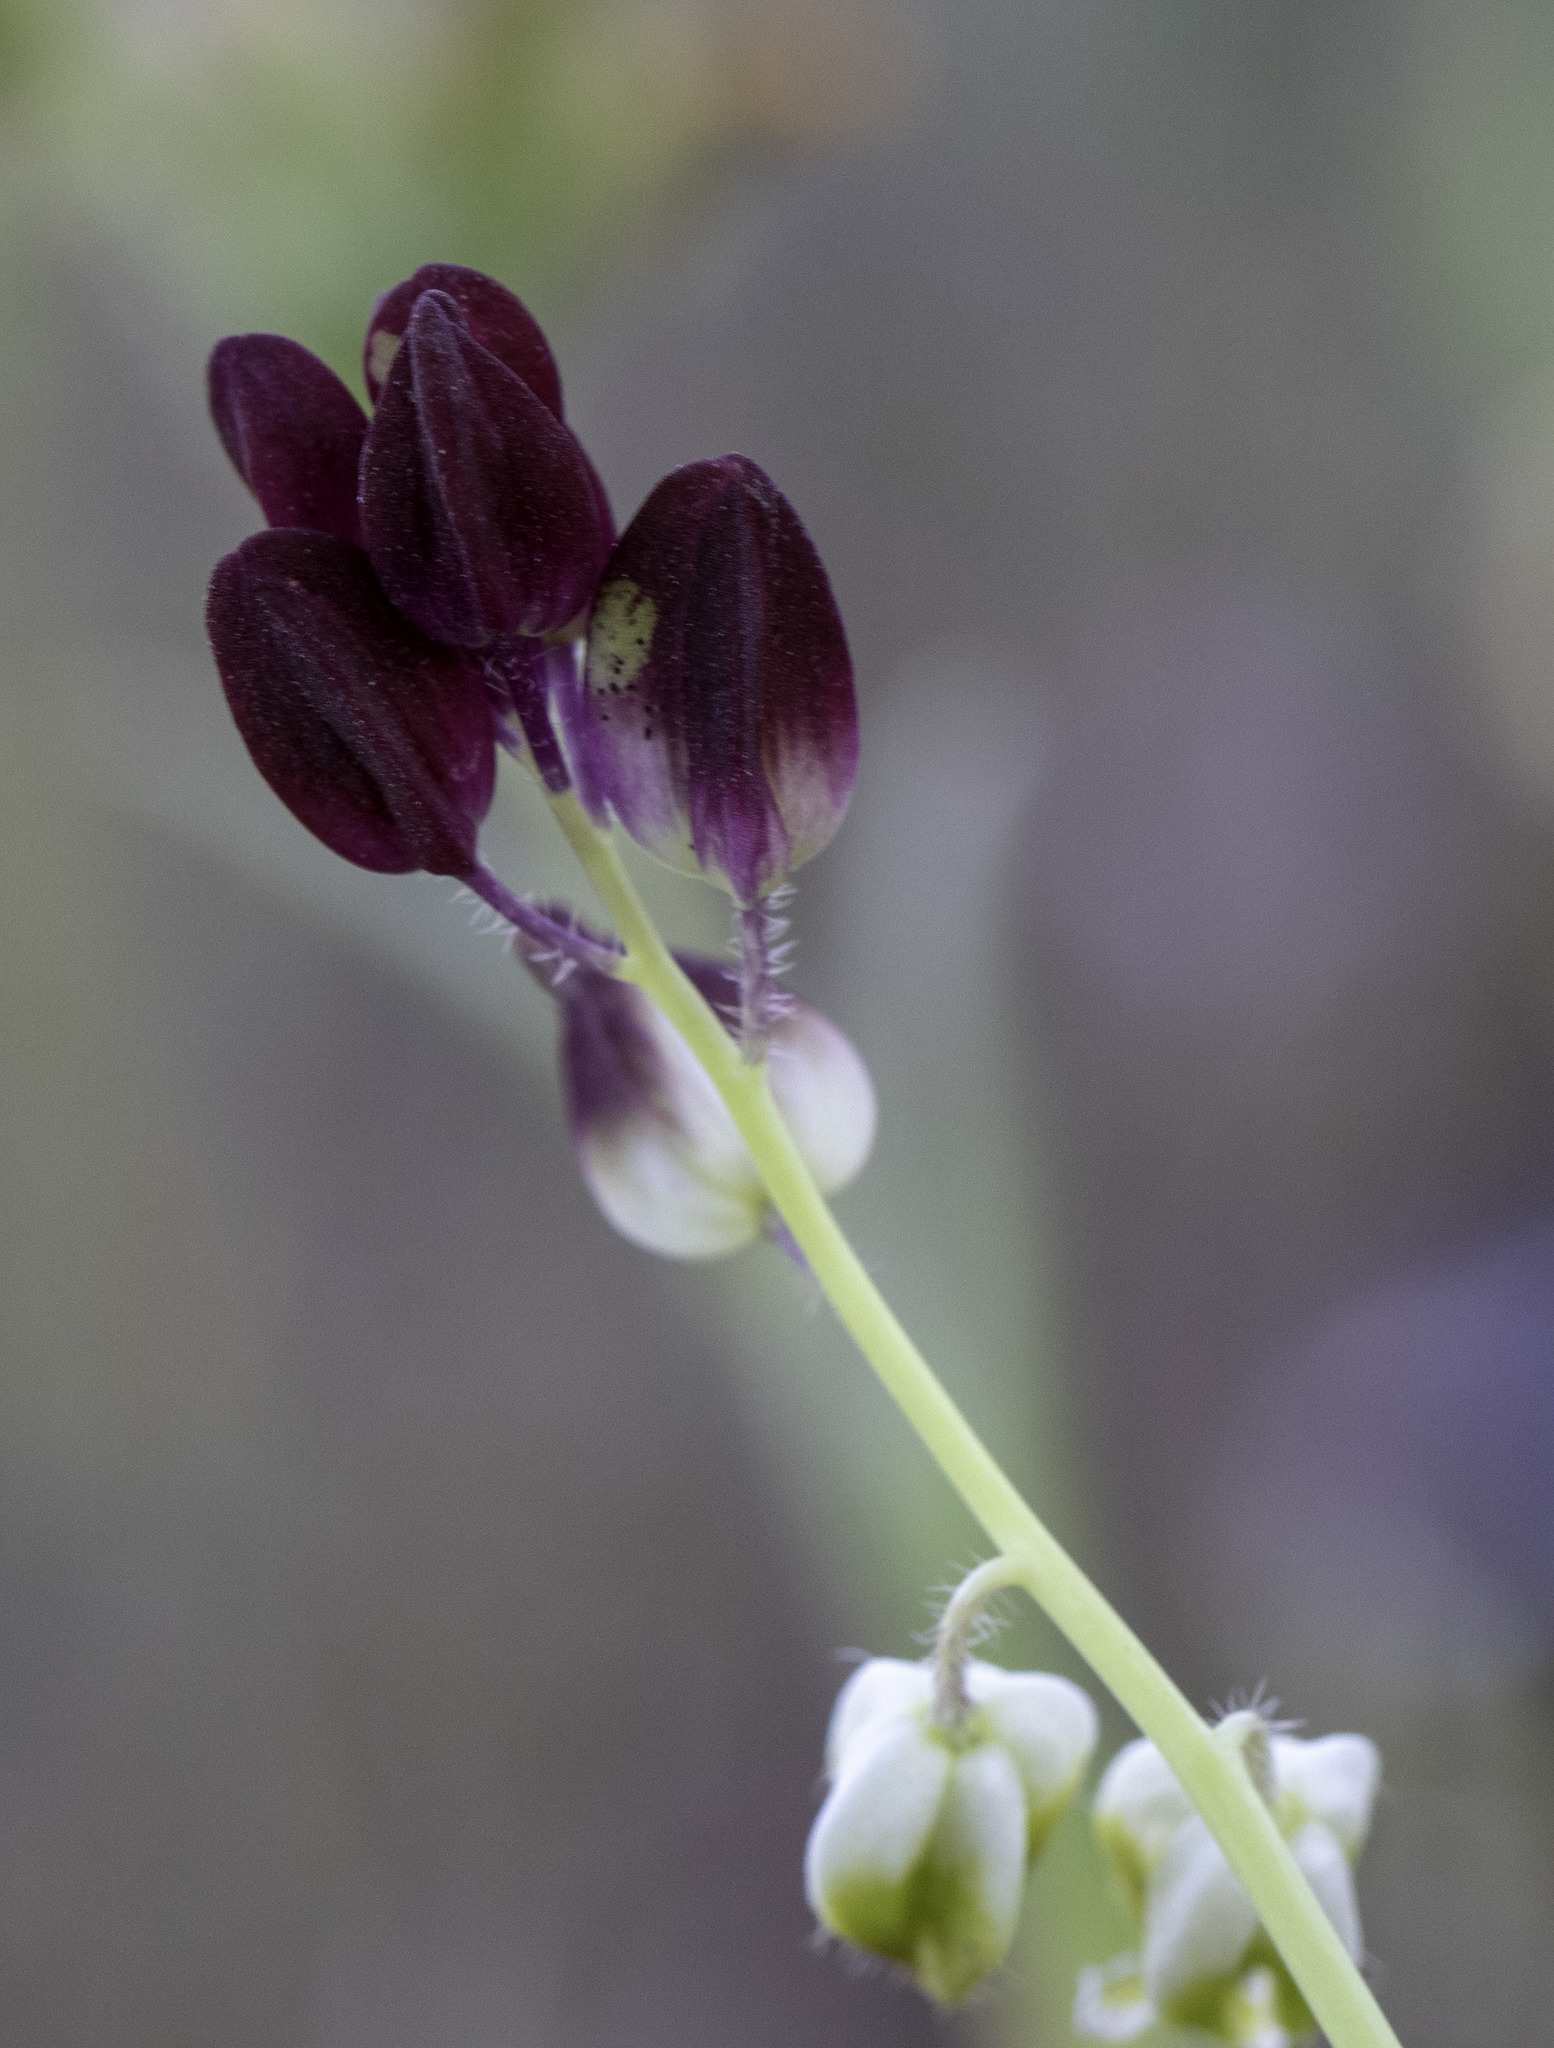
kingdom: Plantae
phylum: Tracheophyta
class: Magnoliopsida
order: Brassicales
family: Brassicaceae
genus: Streptanthus
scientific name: Streptanthus californicus
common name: California-jewel-flower
